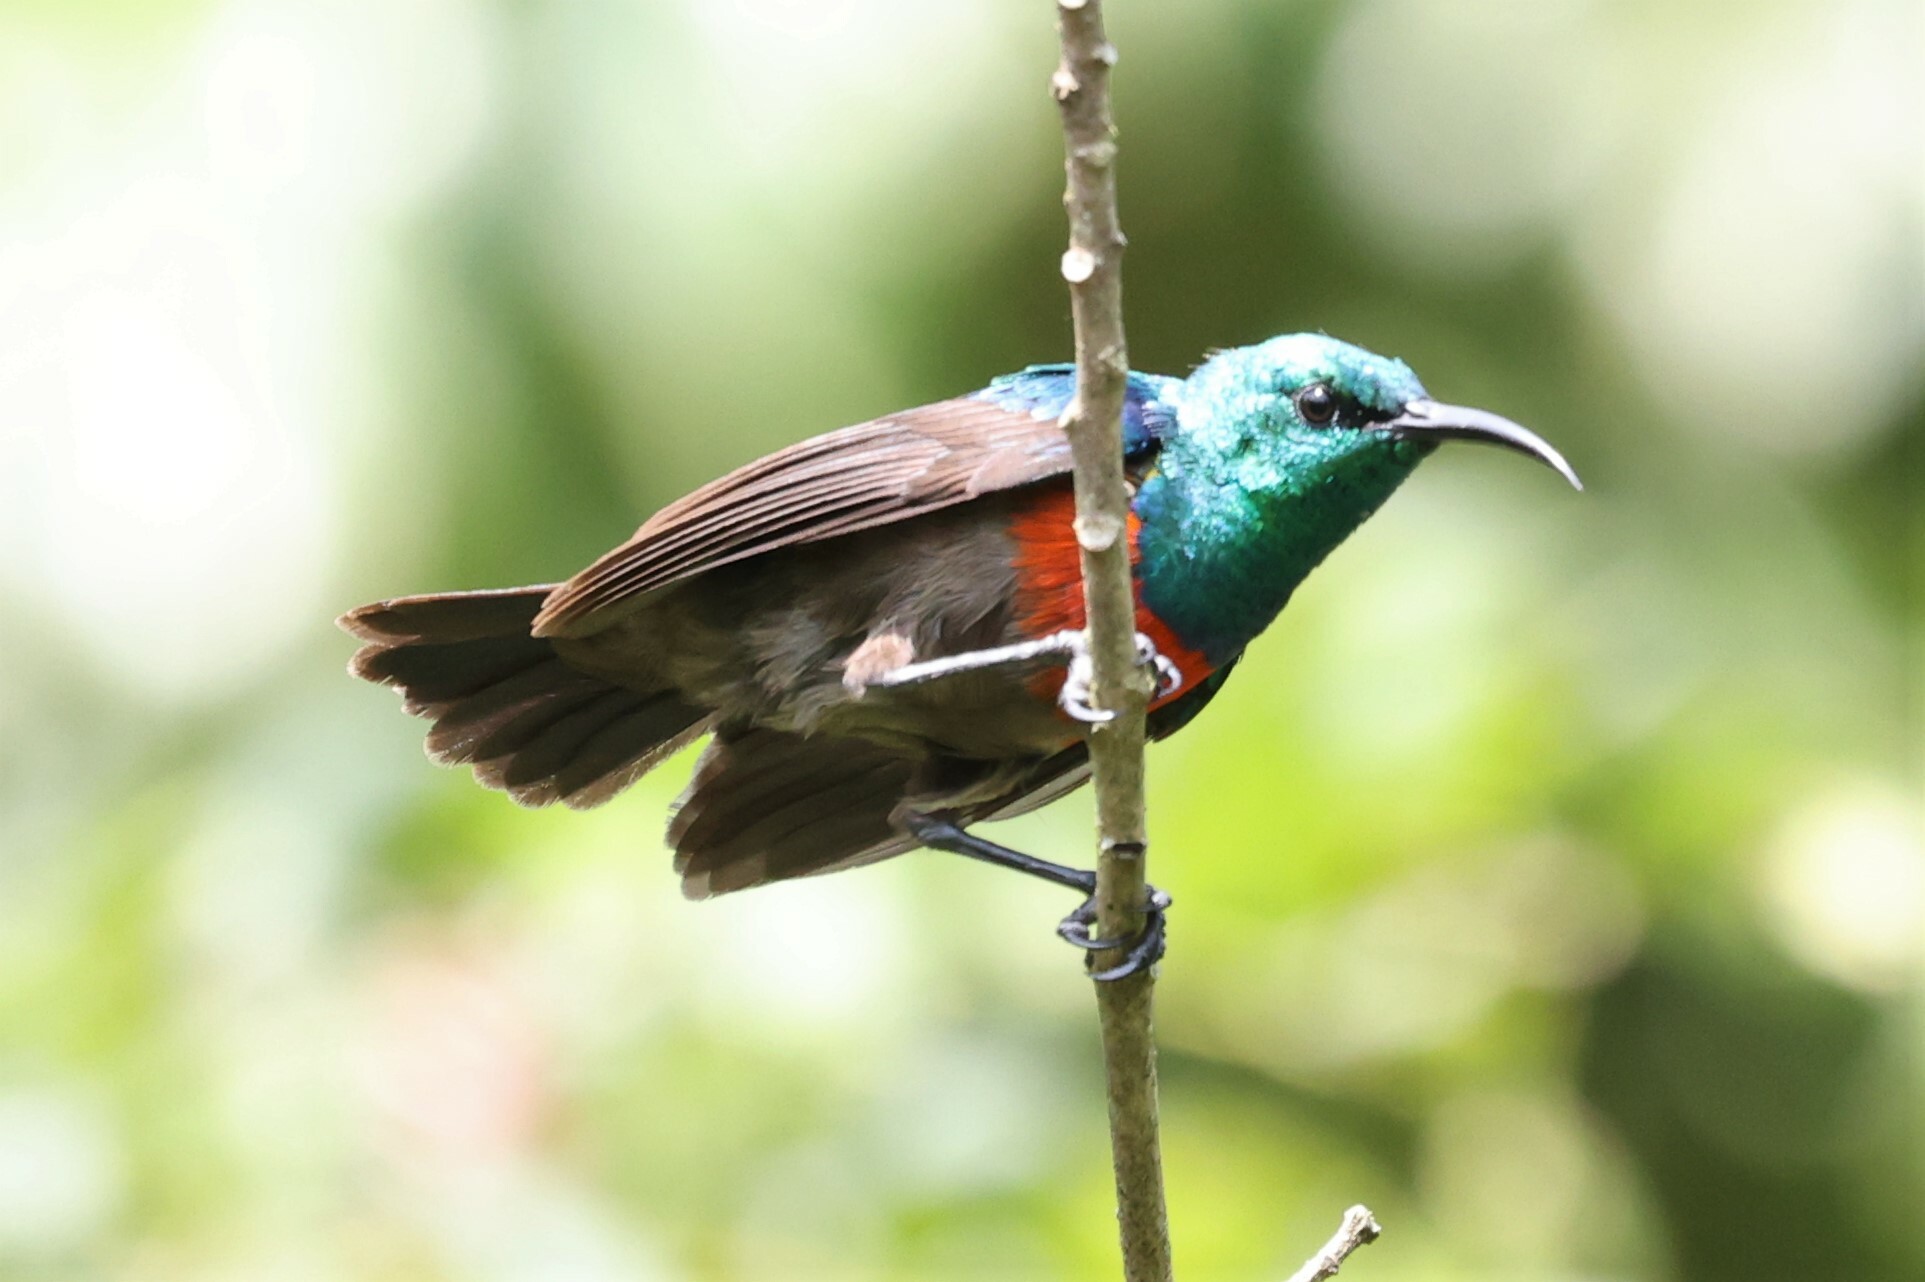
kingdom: Animalia
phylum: Chordata
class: Aves
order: Passeriformes
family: Nectariniidae
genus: Cinnyris
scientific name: Cinnyris chloropygius
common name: Olive-bellied sunbird
